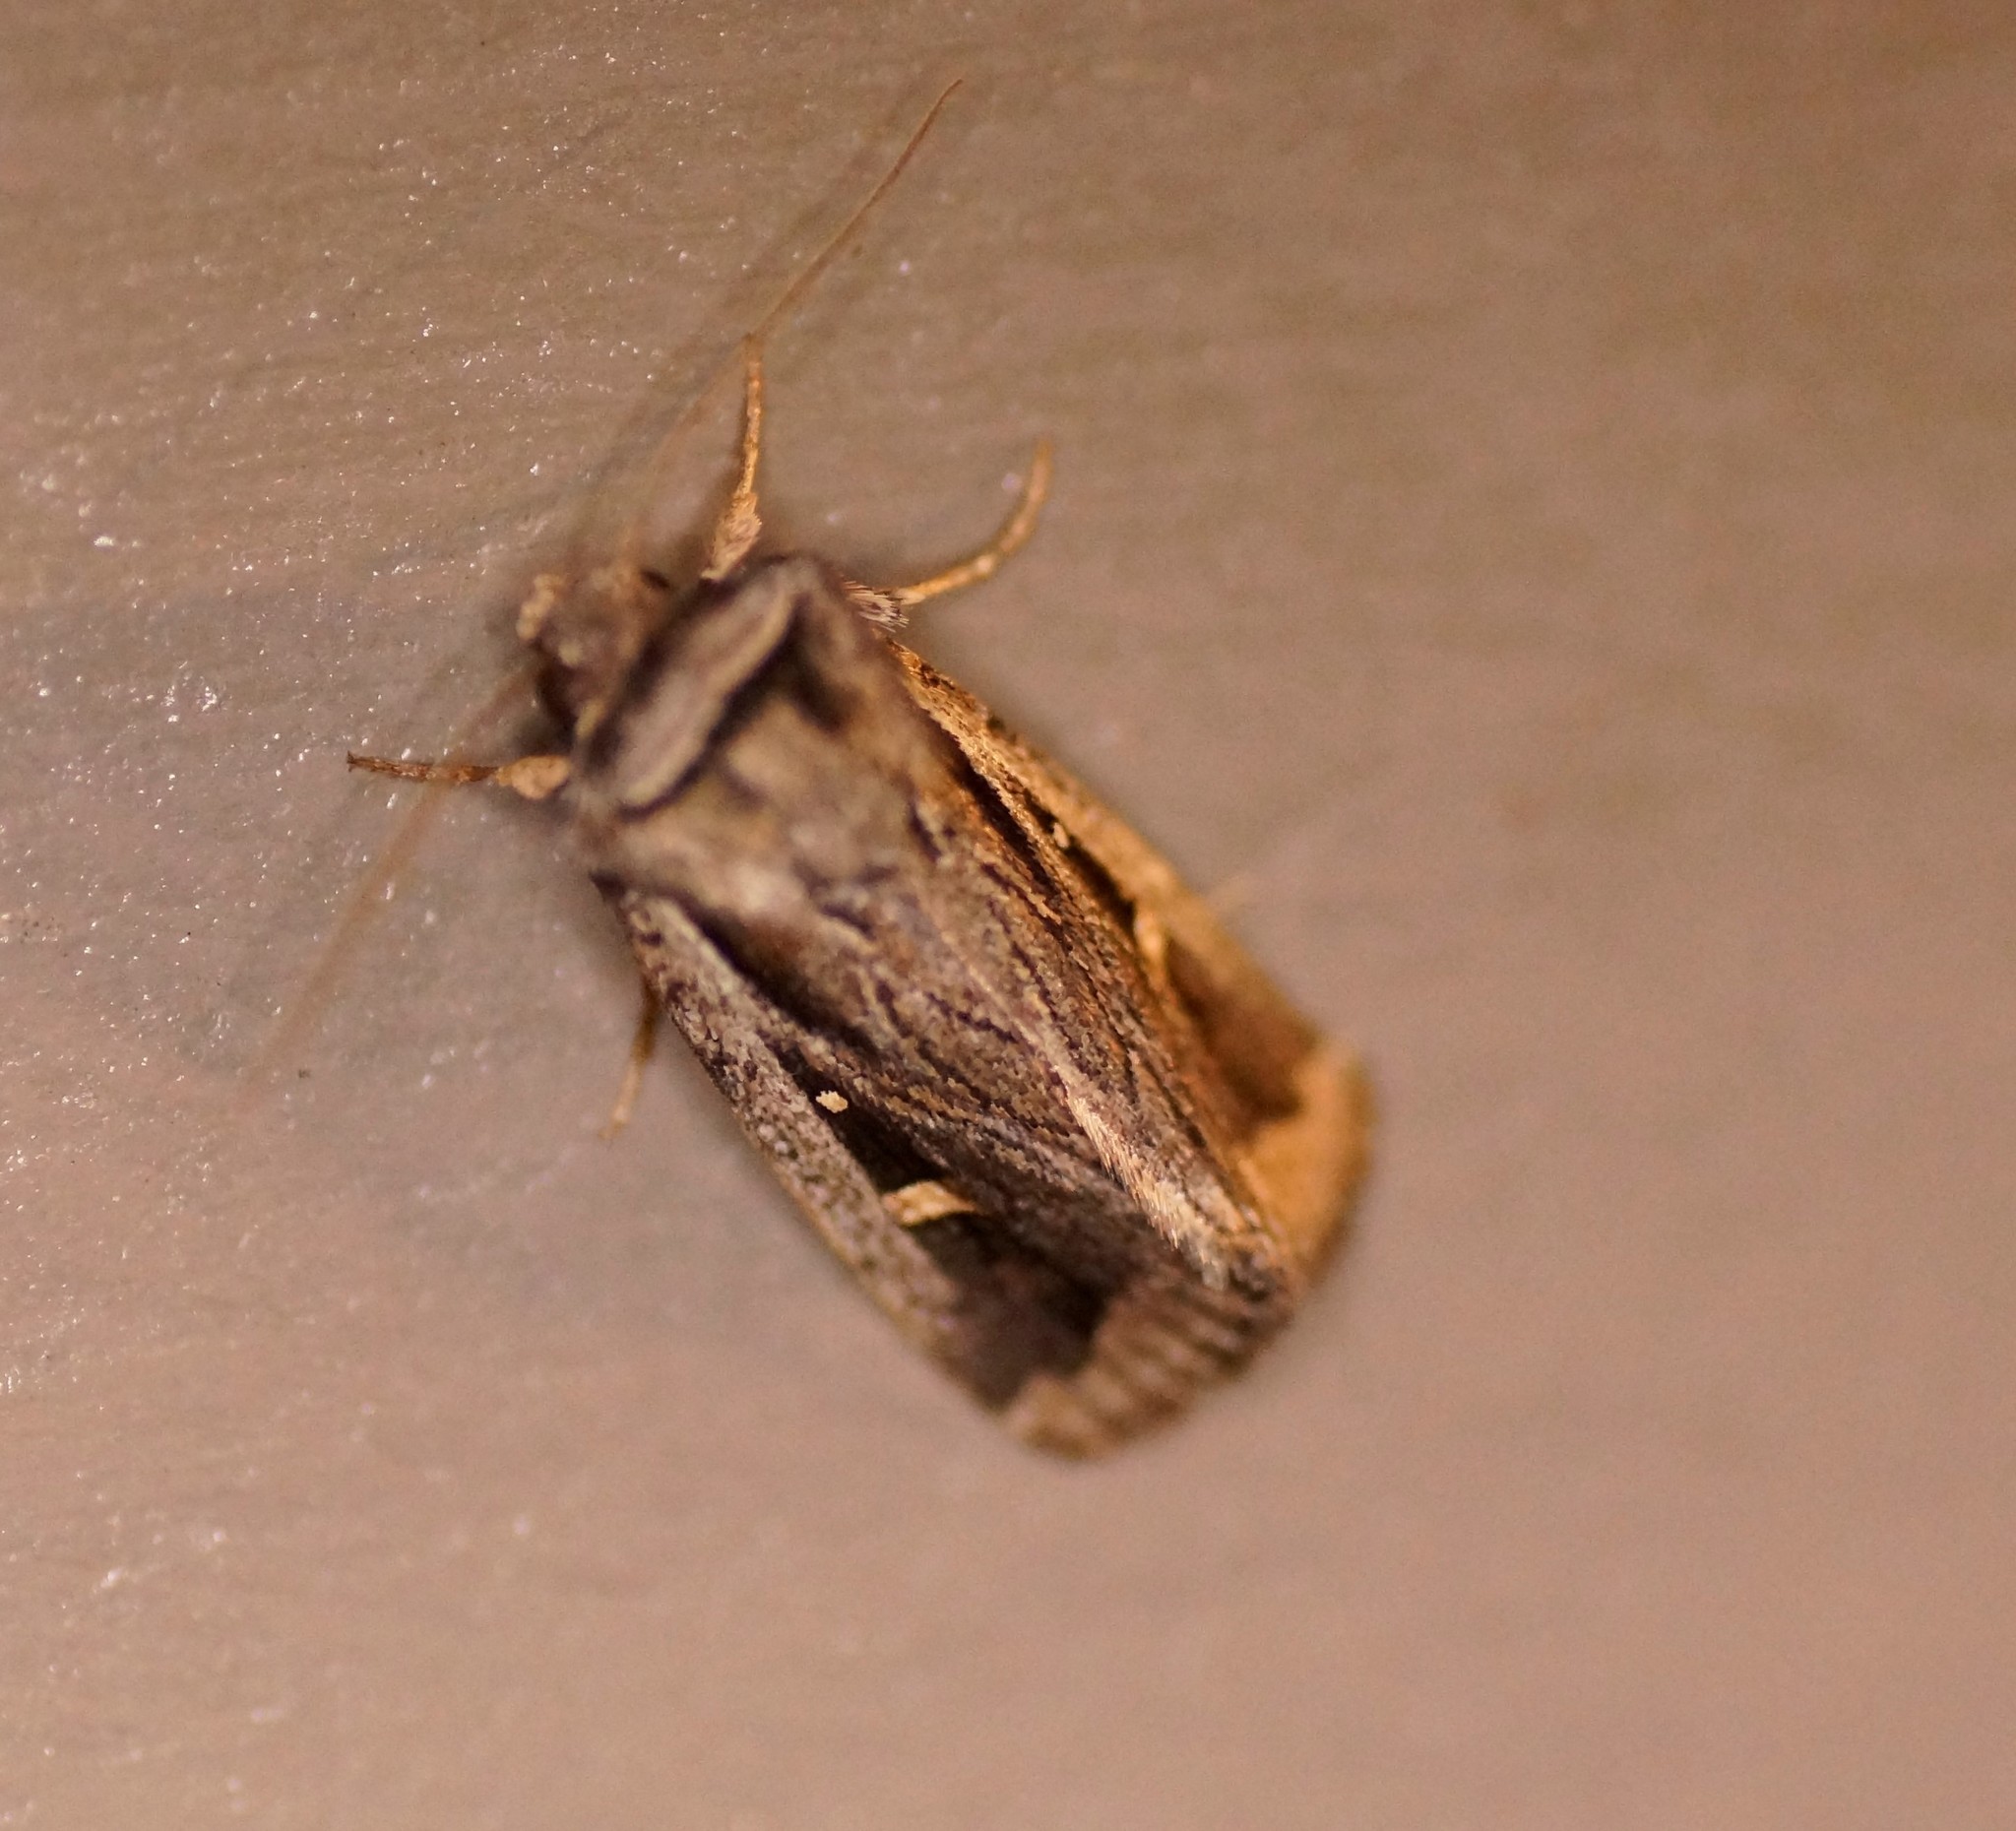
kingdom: Animalia
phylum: Arthropoda
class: Insecta
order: Lepidoptera
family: Noctuidae
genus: Proteuxoa
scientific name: Proteuxoa chrysospila
